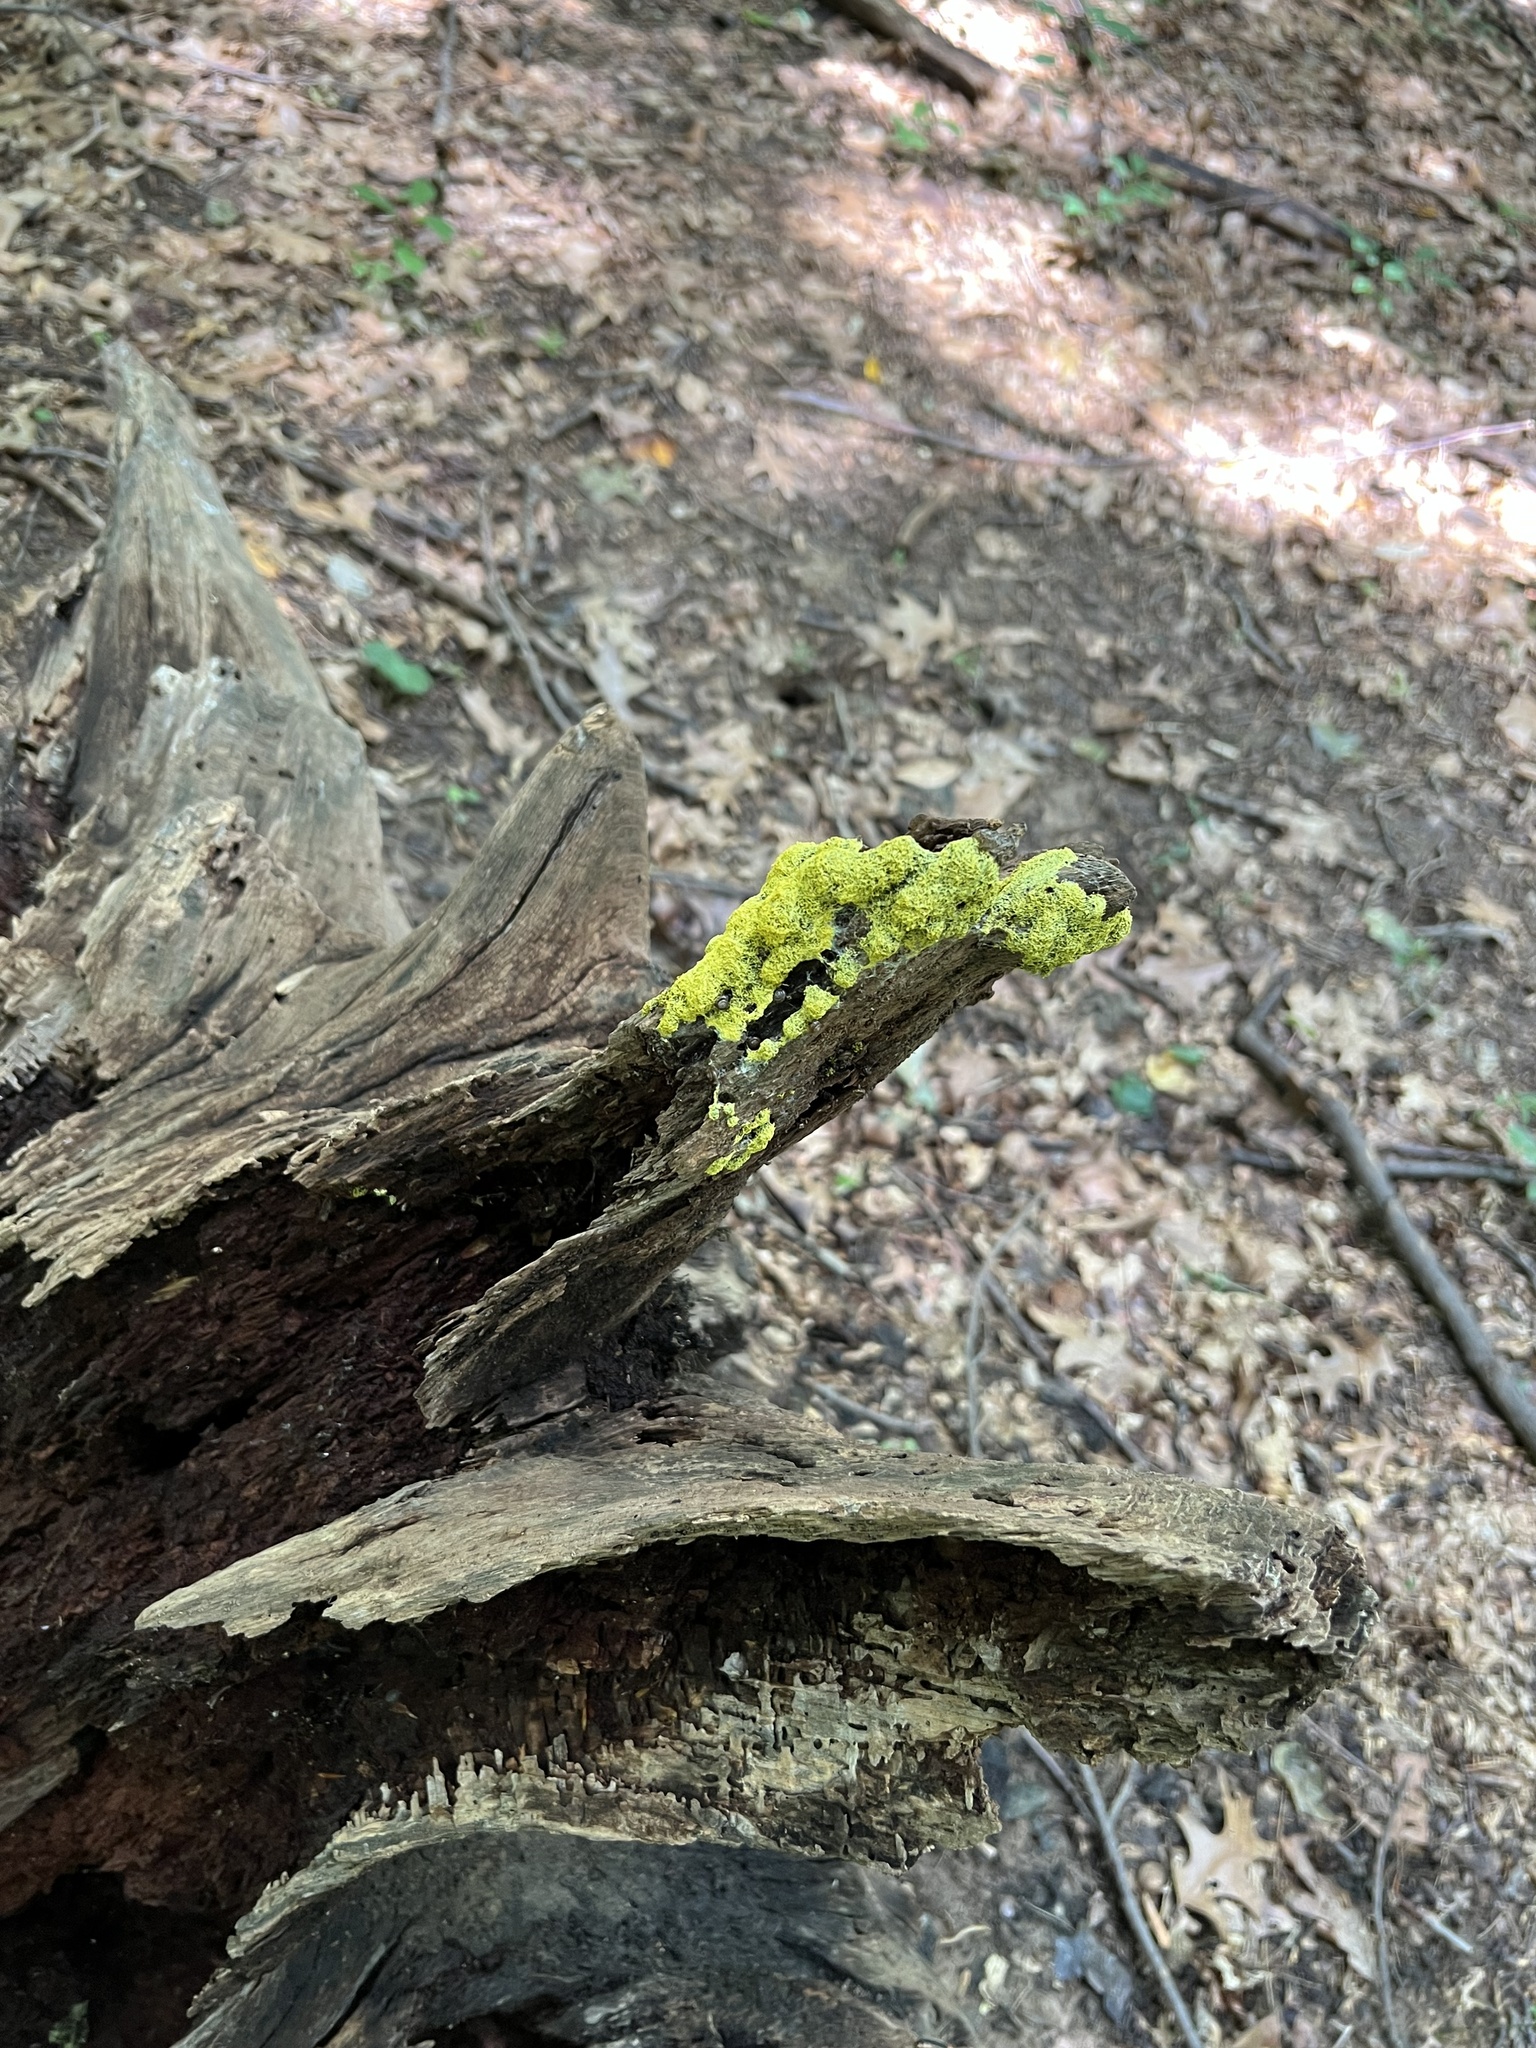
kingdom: Protozoa
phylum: Mycetozoa
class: Myxomycetes
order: Physarales
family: Physaraceae
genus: Fuligo
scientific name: Fuligo septica
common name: Dog vomit slime mold
